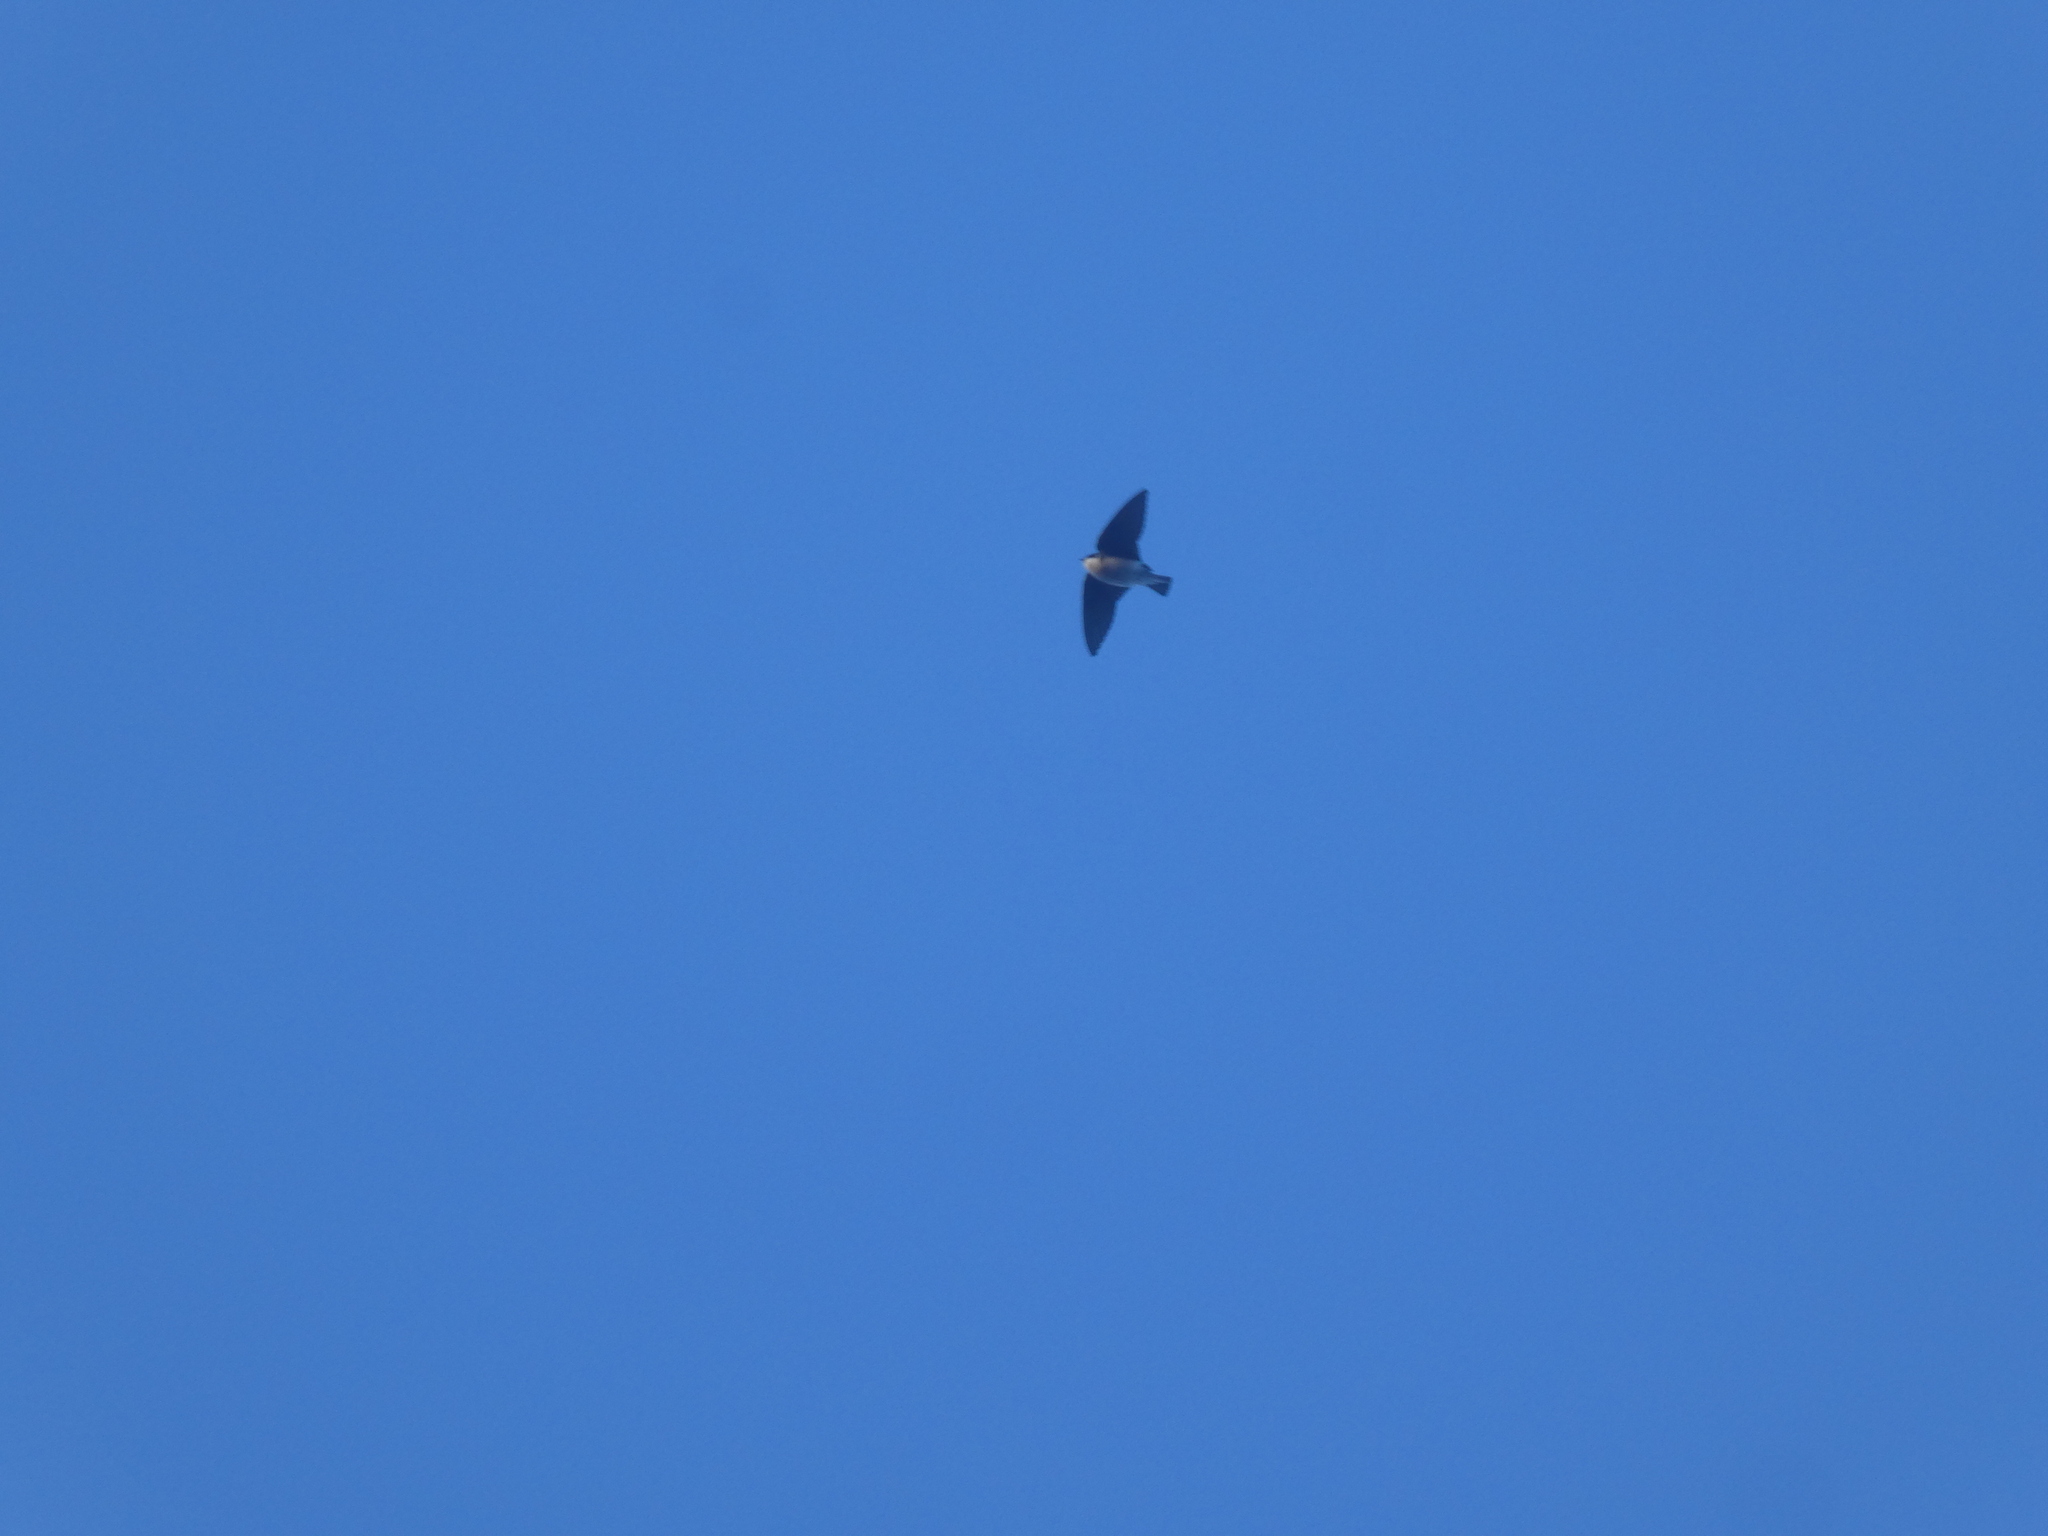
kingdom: Animalia
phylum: Chordata
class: Aves
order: Passeriformes
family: Hirundinidae
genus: Tachycineta
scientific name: Tachycineta bicolor
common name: Tree swallow
